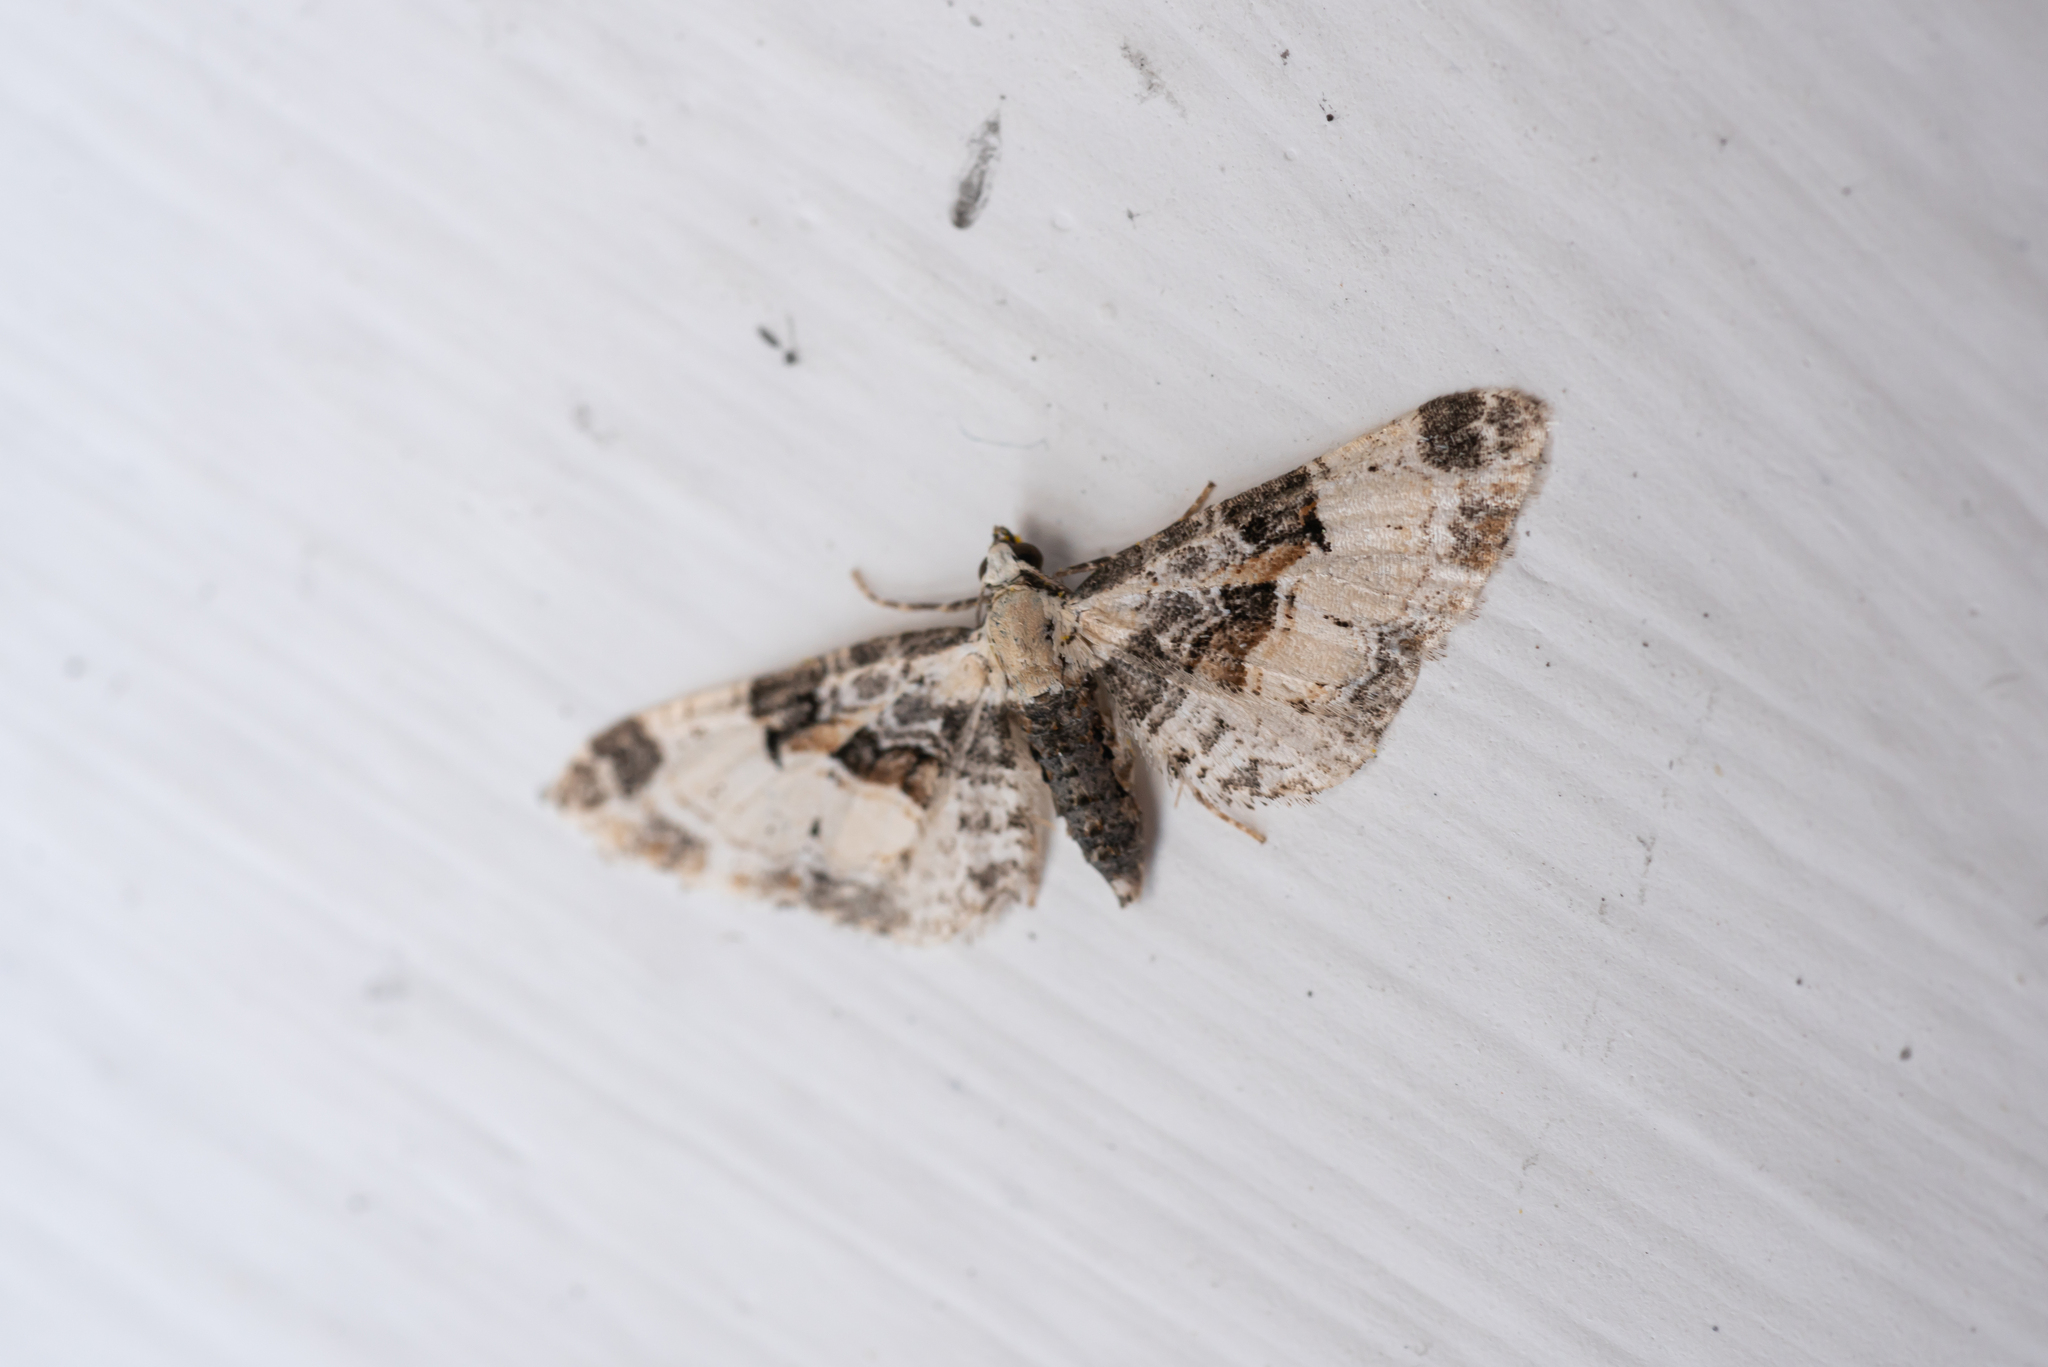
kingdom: Animalia
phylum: Arthropoda
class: Insecta
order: Lepidoptera
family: Geometridae
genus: Eupithecia
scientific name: Eupithecia extremata
